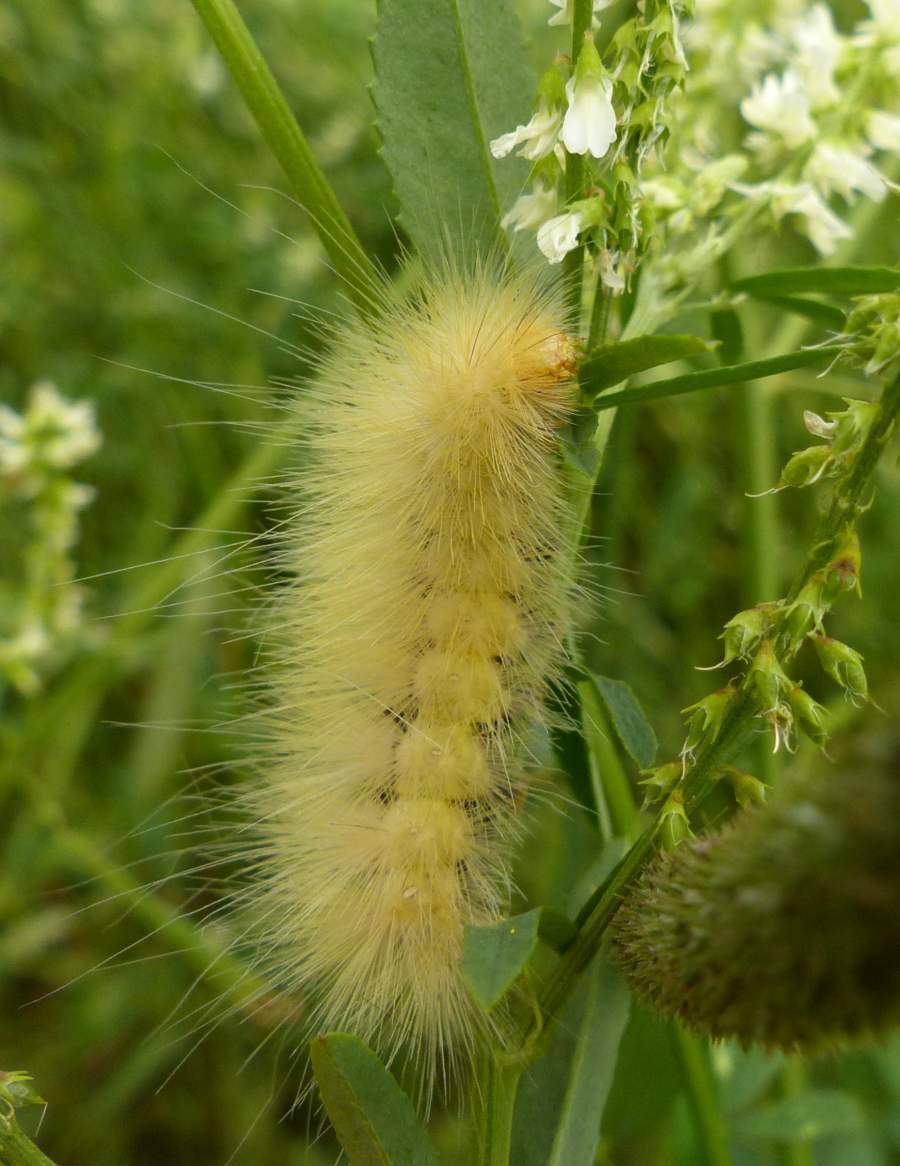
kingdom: Animalia
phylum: Arthropoda
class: Insecta
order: Lepidoptera
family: Erebidae
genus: Spilosoma
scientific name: Spilosoma virginica
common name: Virginia tiger moth
